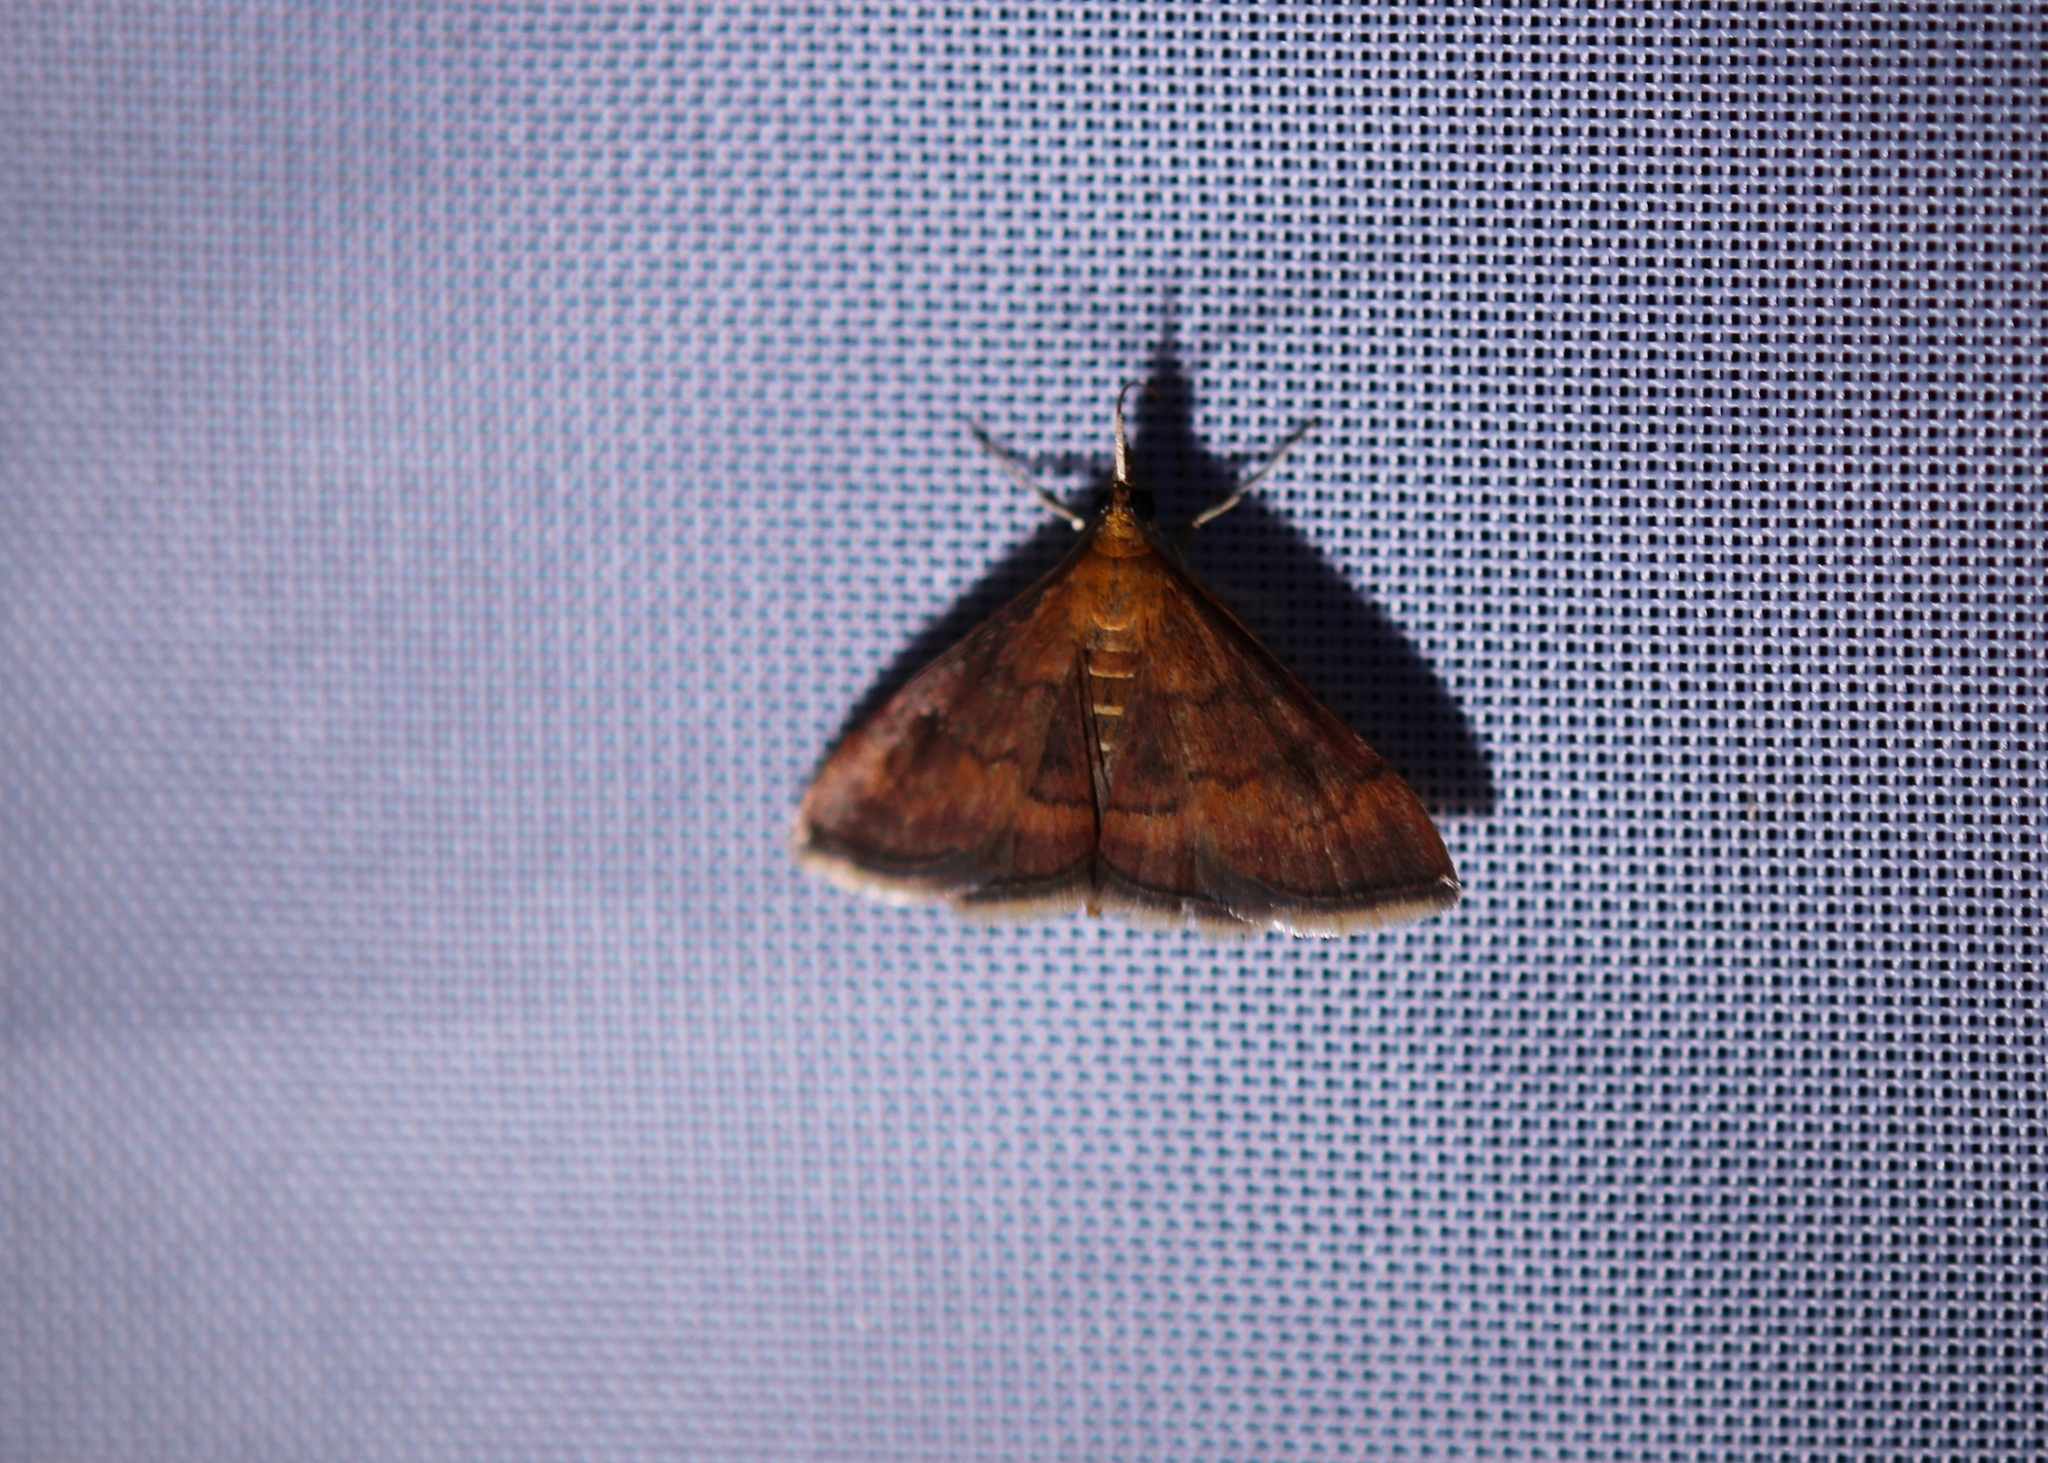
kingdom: Animalia
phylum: Arthropoda
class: Insecta
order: Lepidoptera
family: Crambidae
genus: Pyrausta
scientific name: Pyrausta rubricalis
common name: Variable reddish pyrausta
